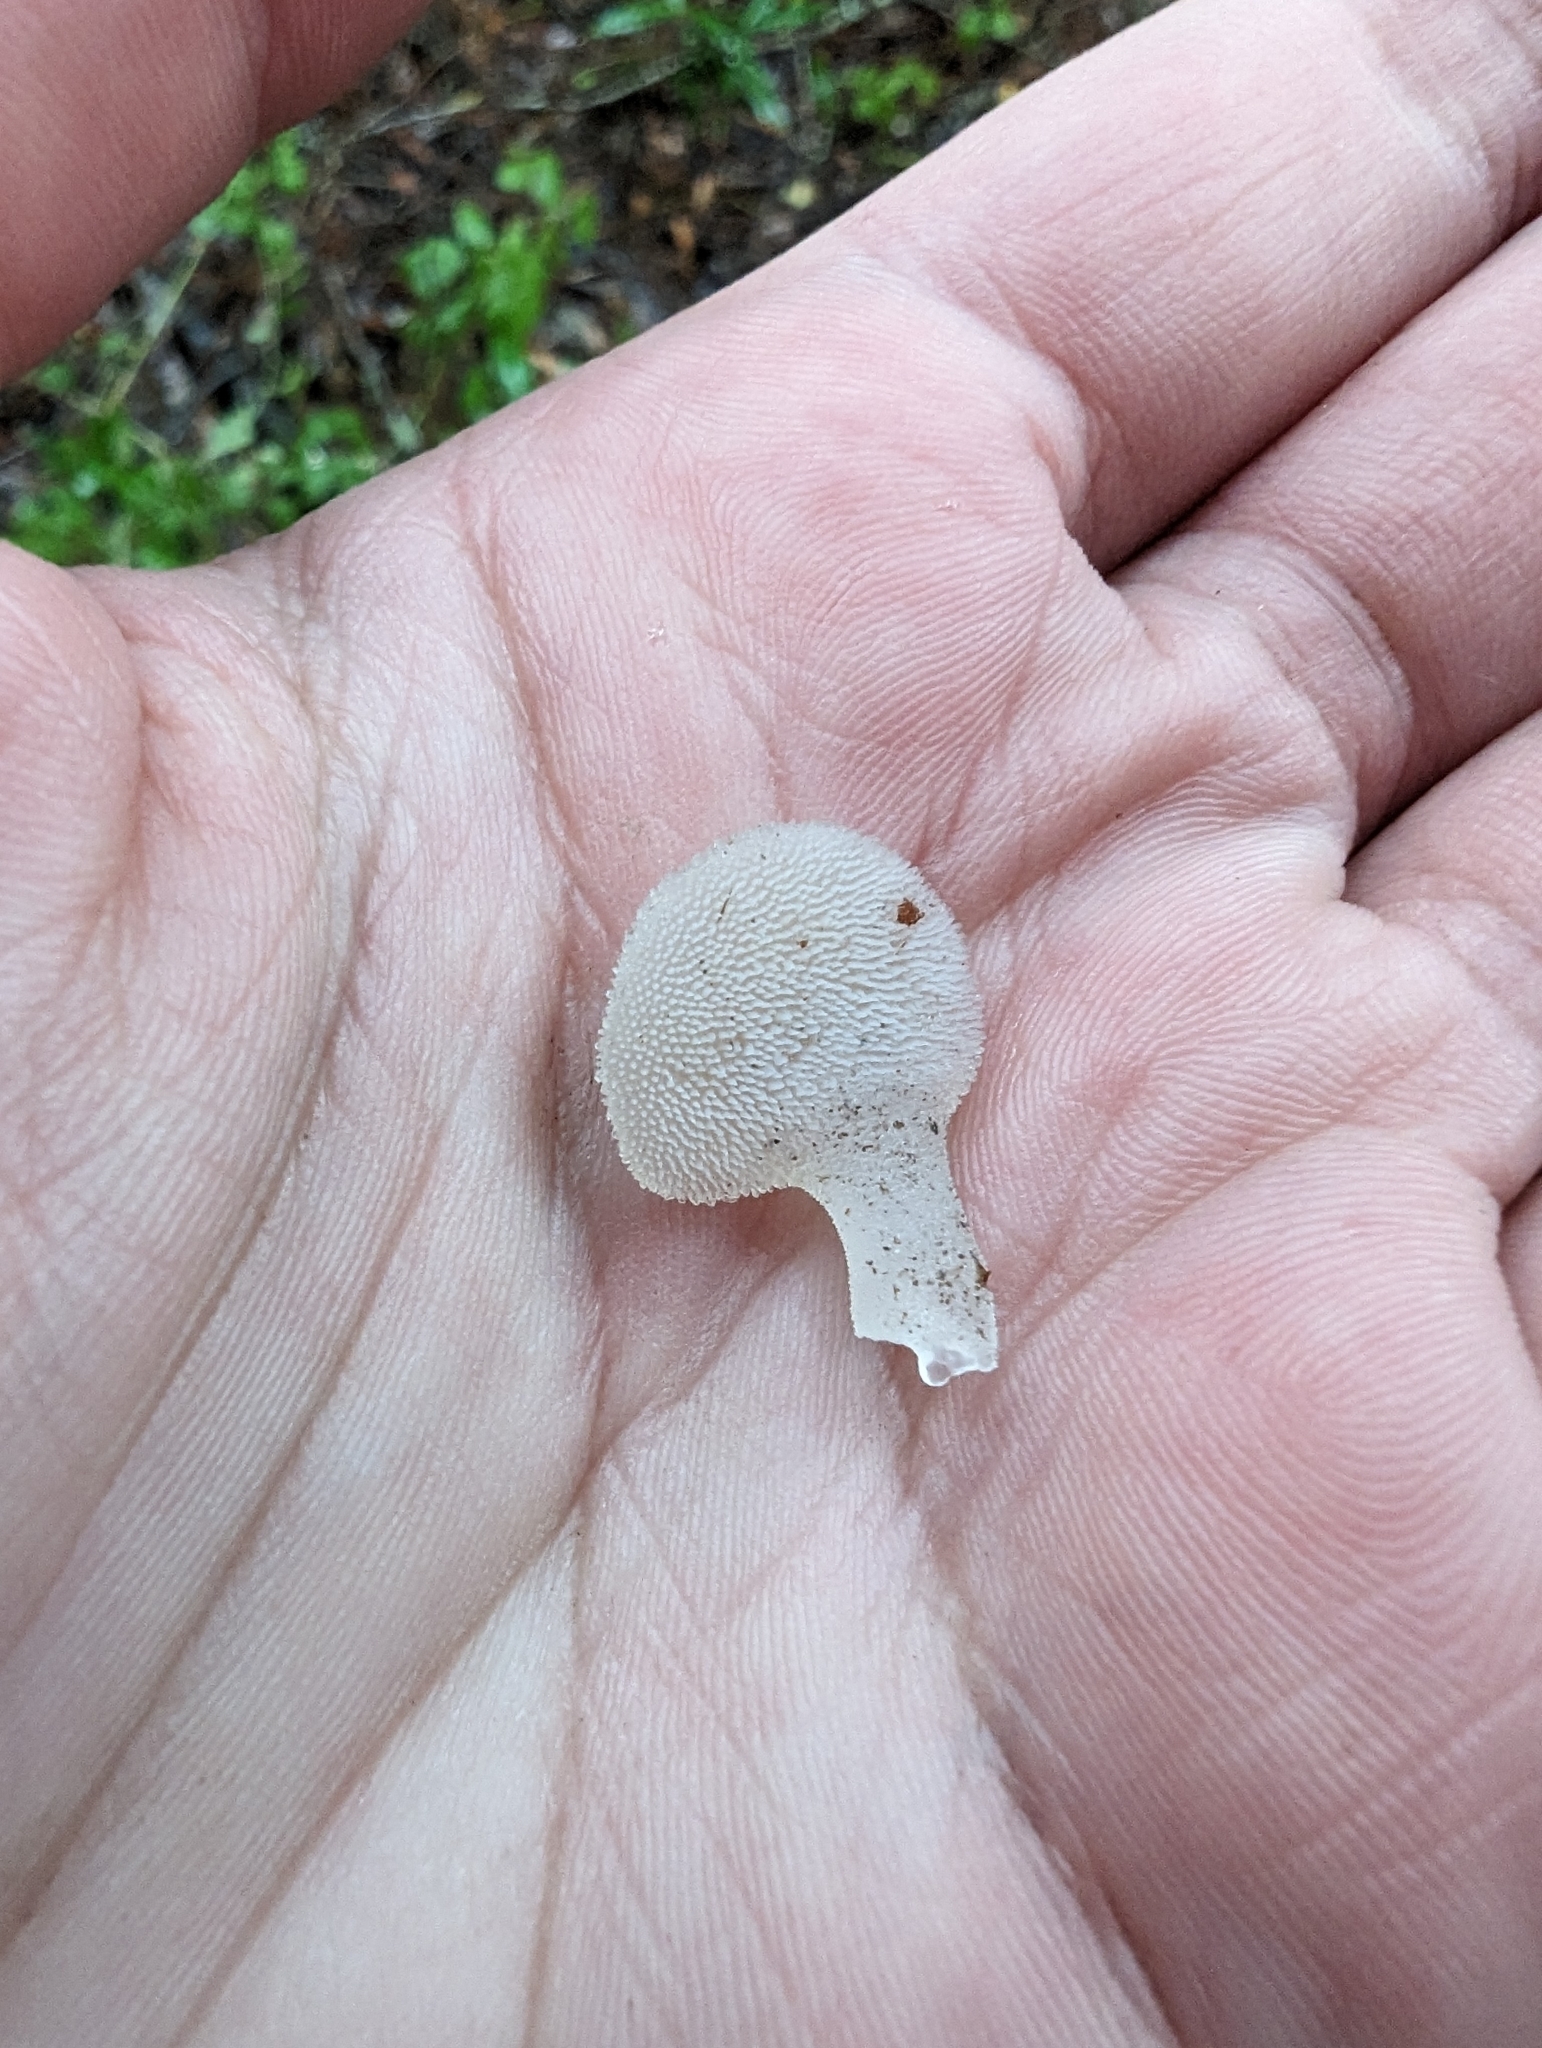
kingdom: Fungi
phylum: Basidiomycota
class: Agaricomycetes
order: Auriculariales
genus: Pseudohydnum
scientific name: Pseudohydnum gelatinosum
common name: Jelly tongue
